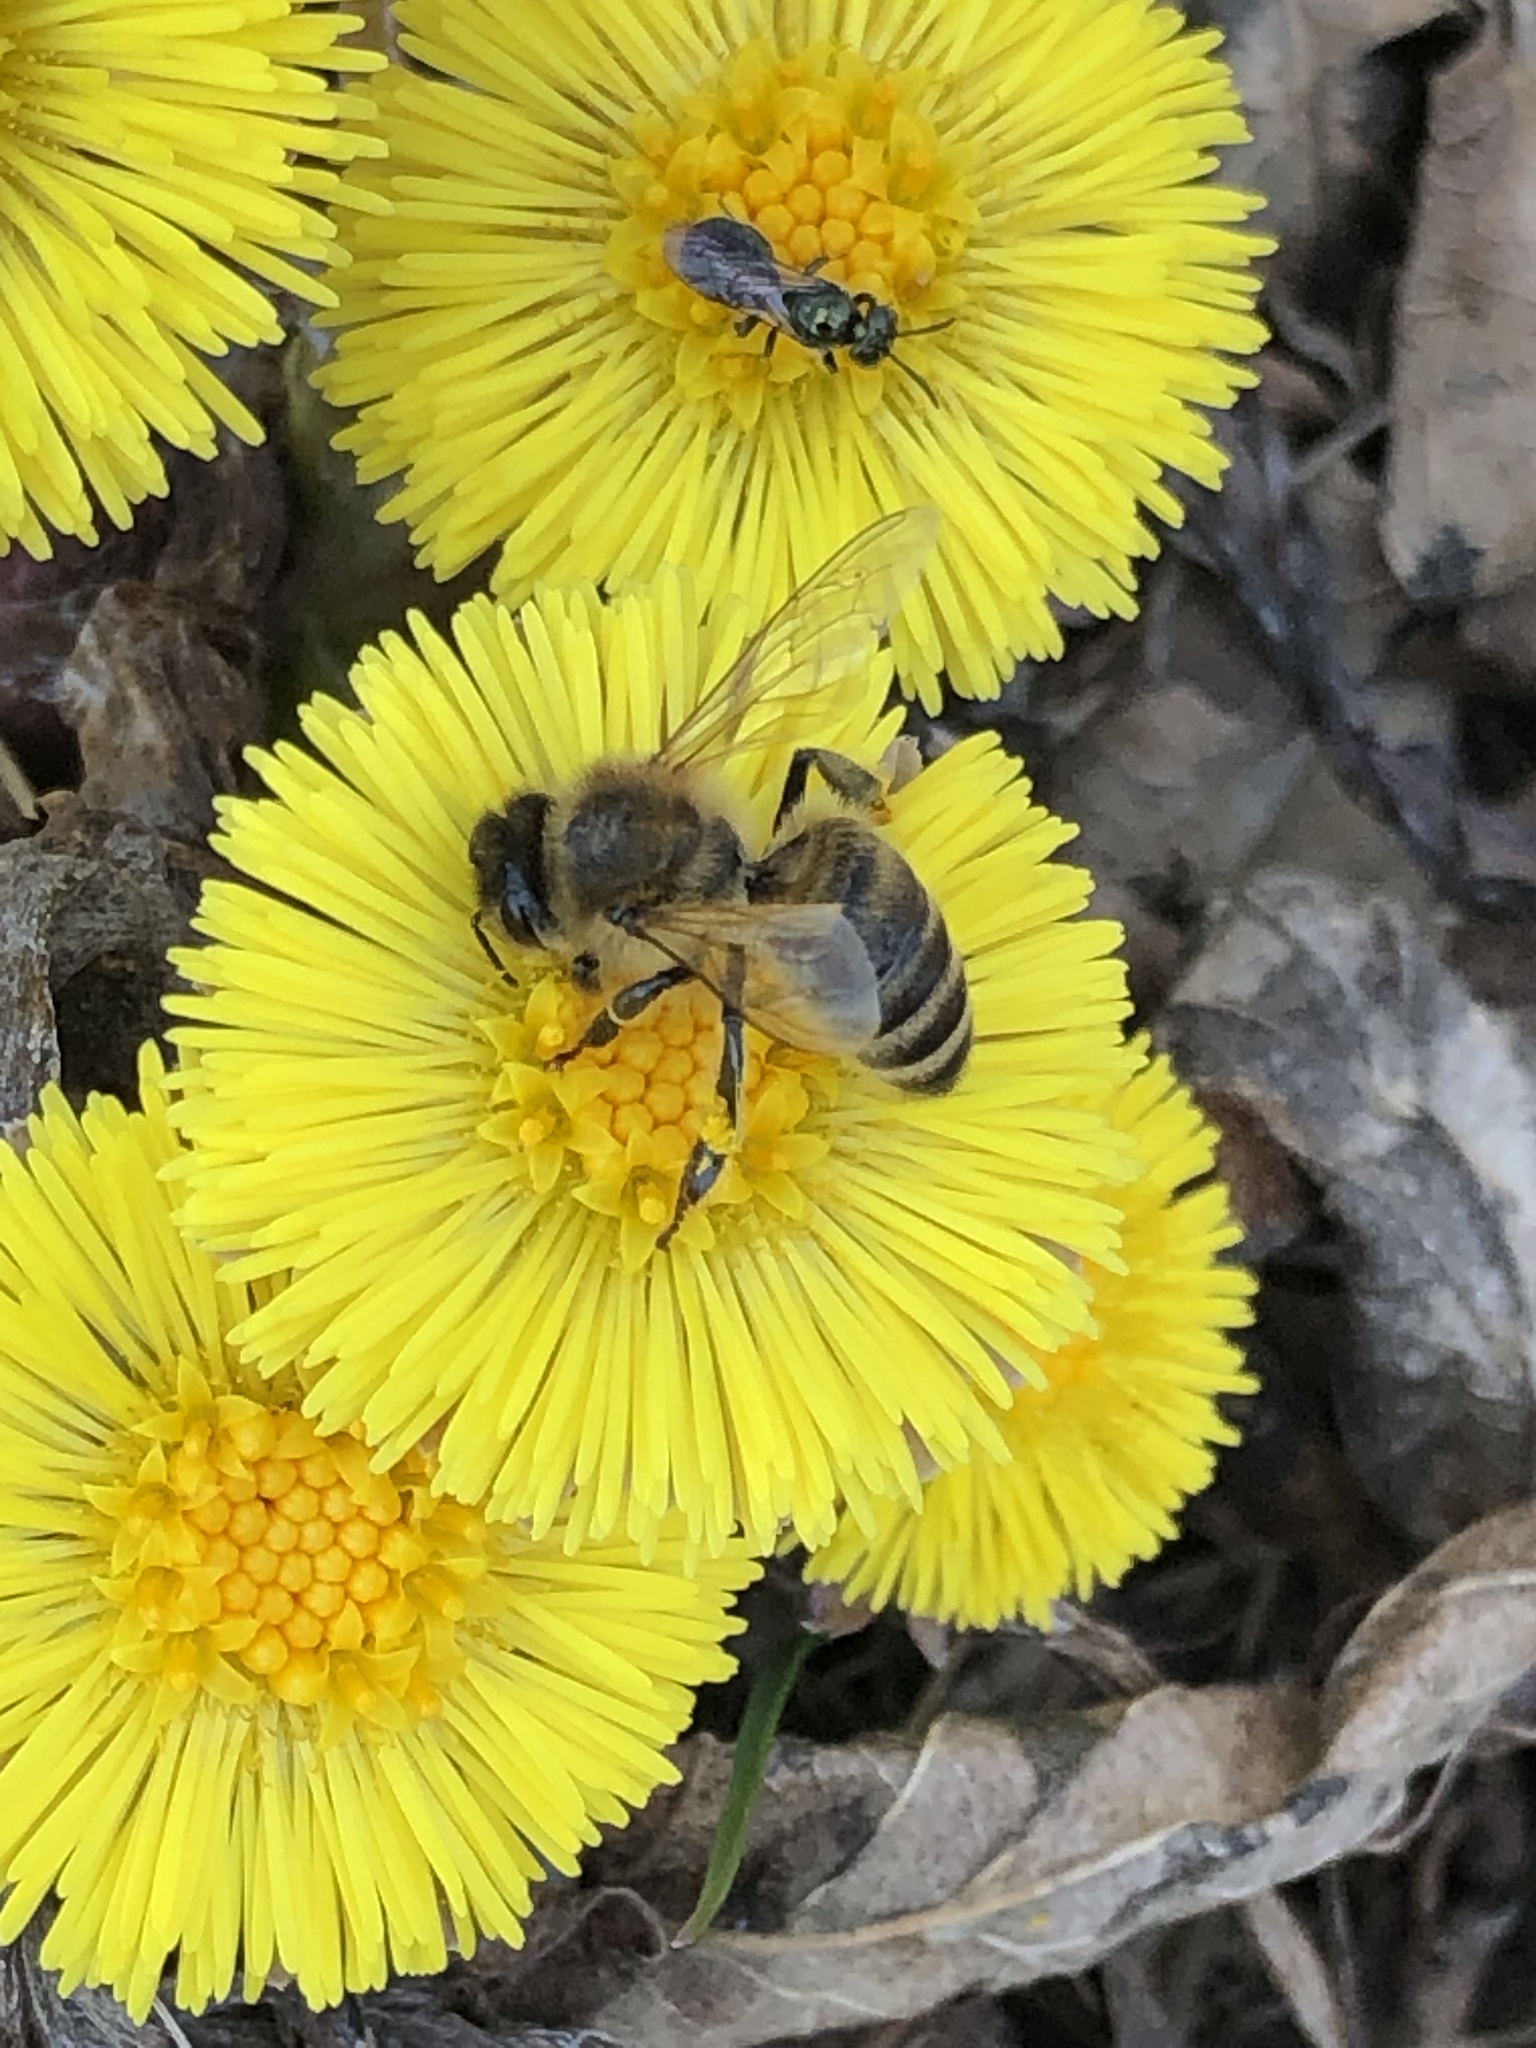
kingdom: Animalia
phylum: Arthropoda
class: Insecta
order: Hymenoptera
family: Apidae
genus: Apis
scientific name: Apis mellifera
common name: Honey bee
